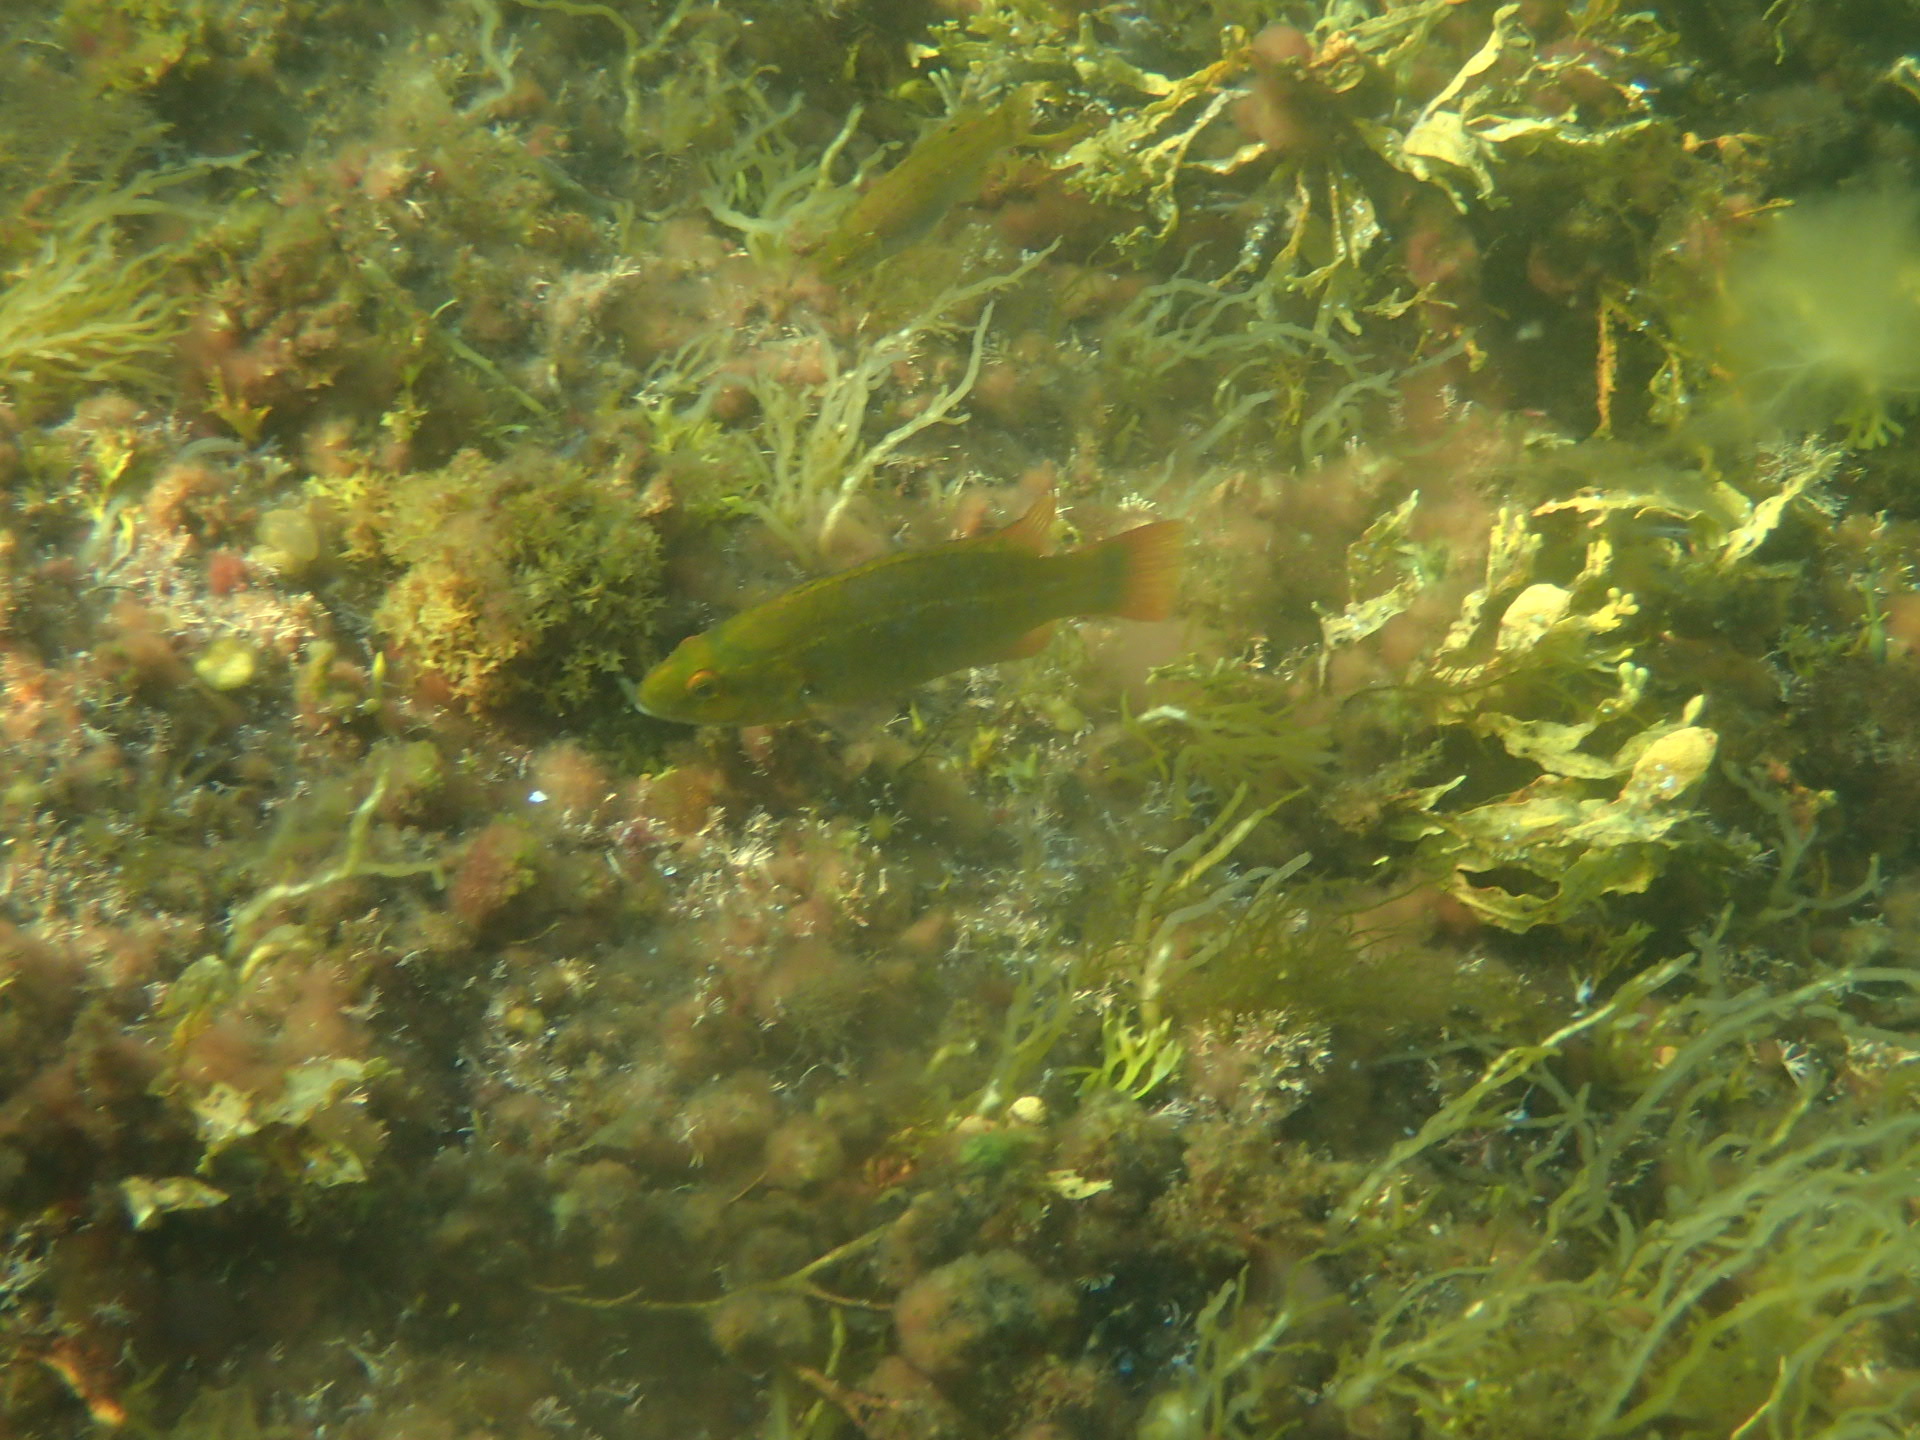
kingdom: Animalia
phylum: Chordata
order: Perciformes
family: Labridae
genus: Tautogolabrus
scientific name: Tautogolabrus adspersus
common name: Cunner
